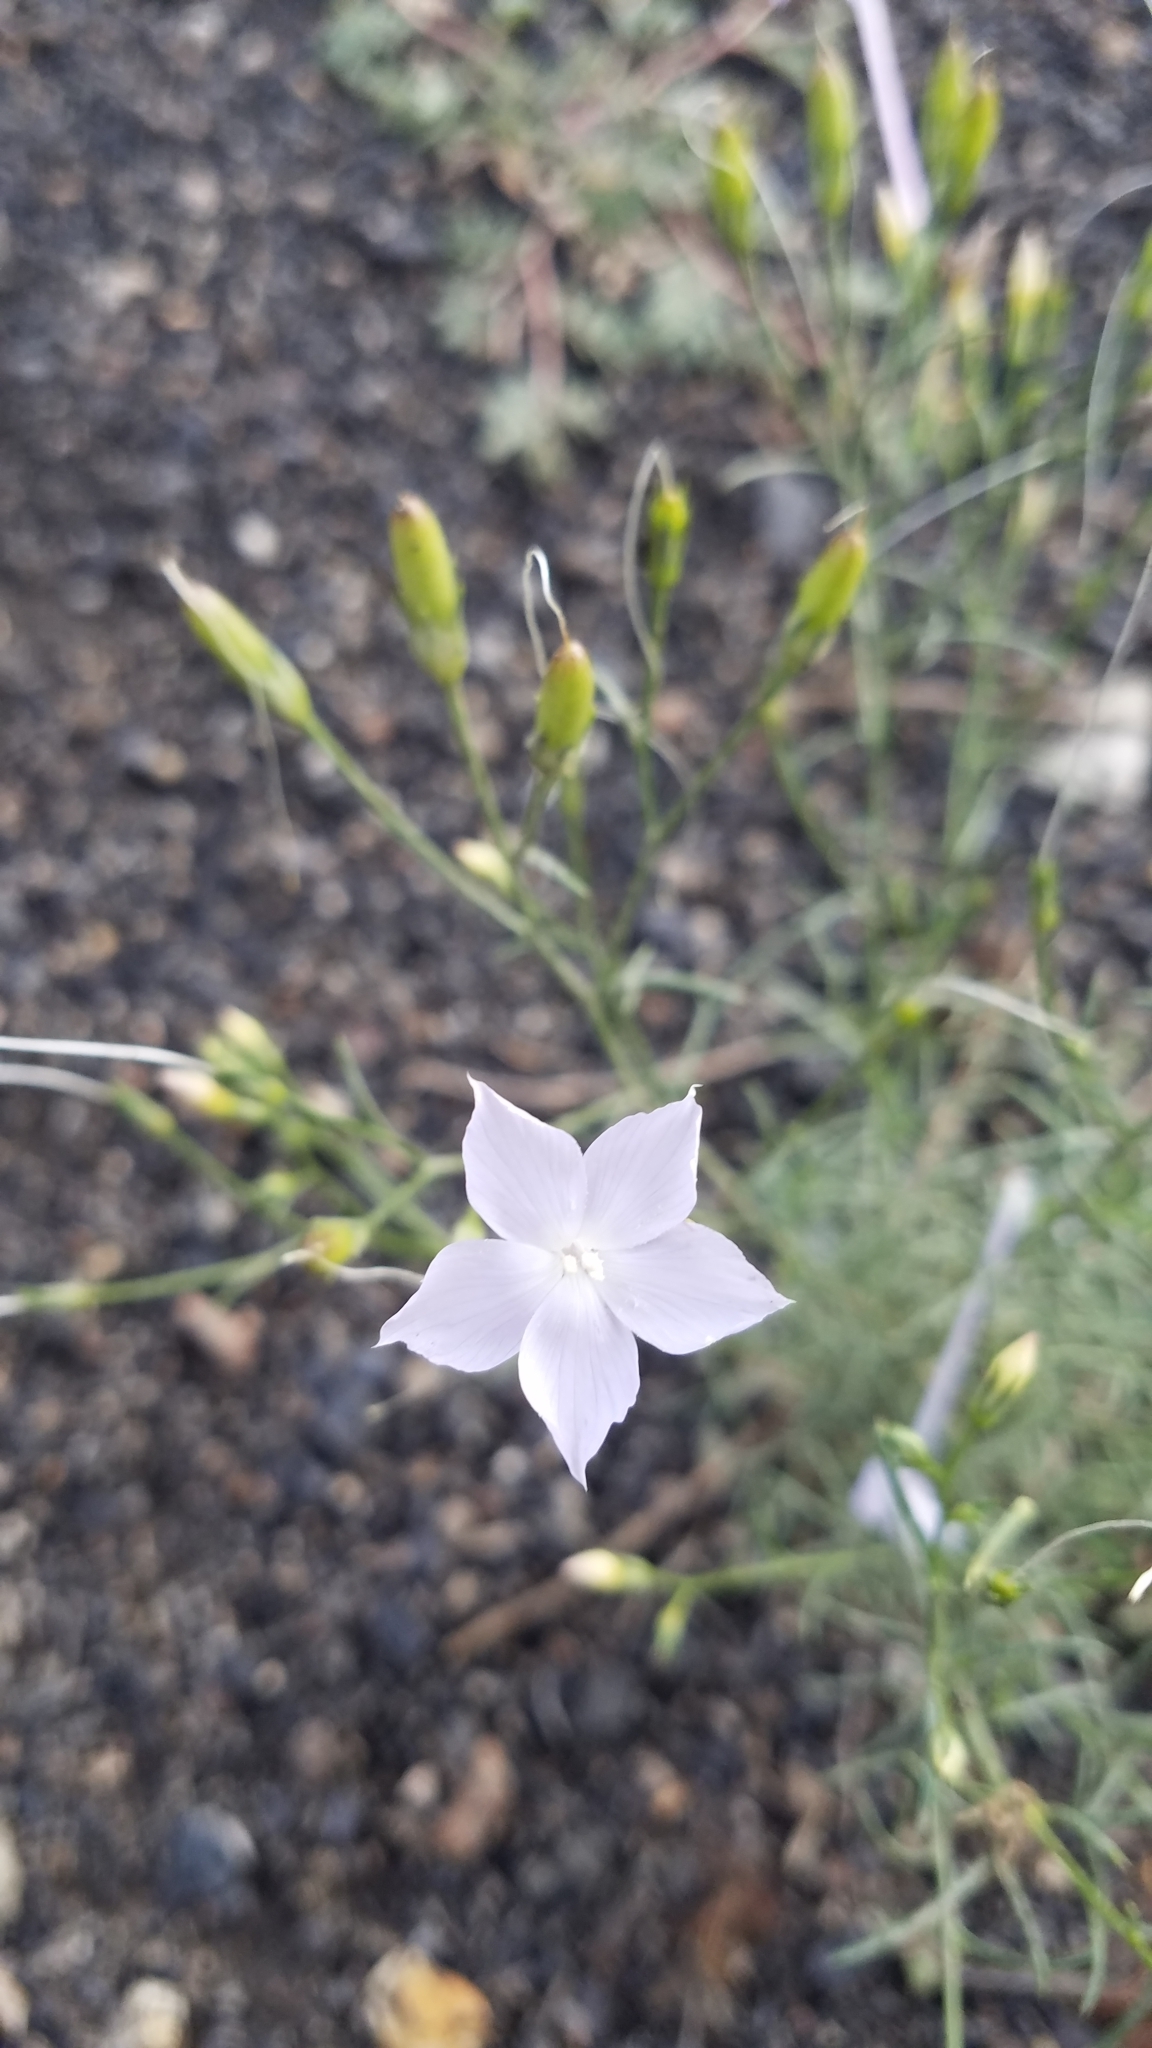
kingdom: Plantae
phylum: Tracheophyta
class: Magnoliopsida
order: Ericales
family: Polemoniaceae
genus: Ipomopsis
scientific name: Ipomopsis longiflora
